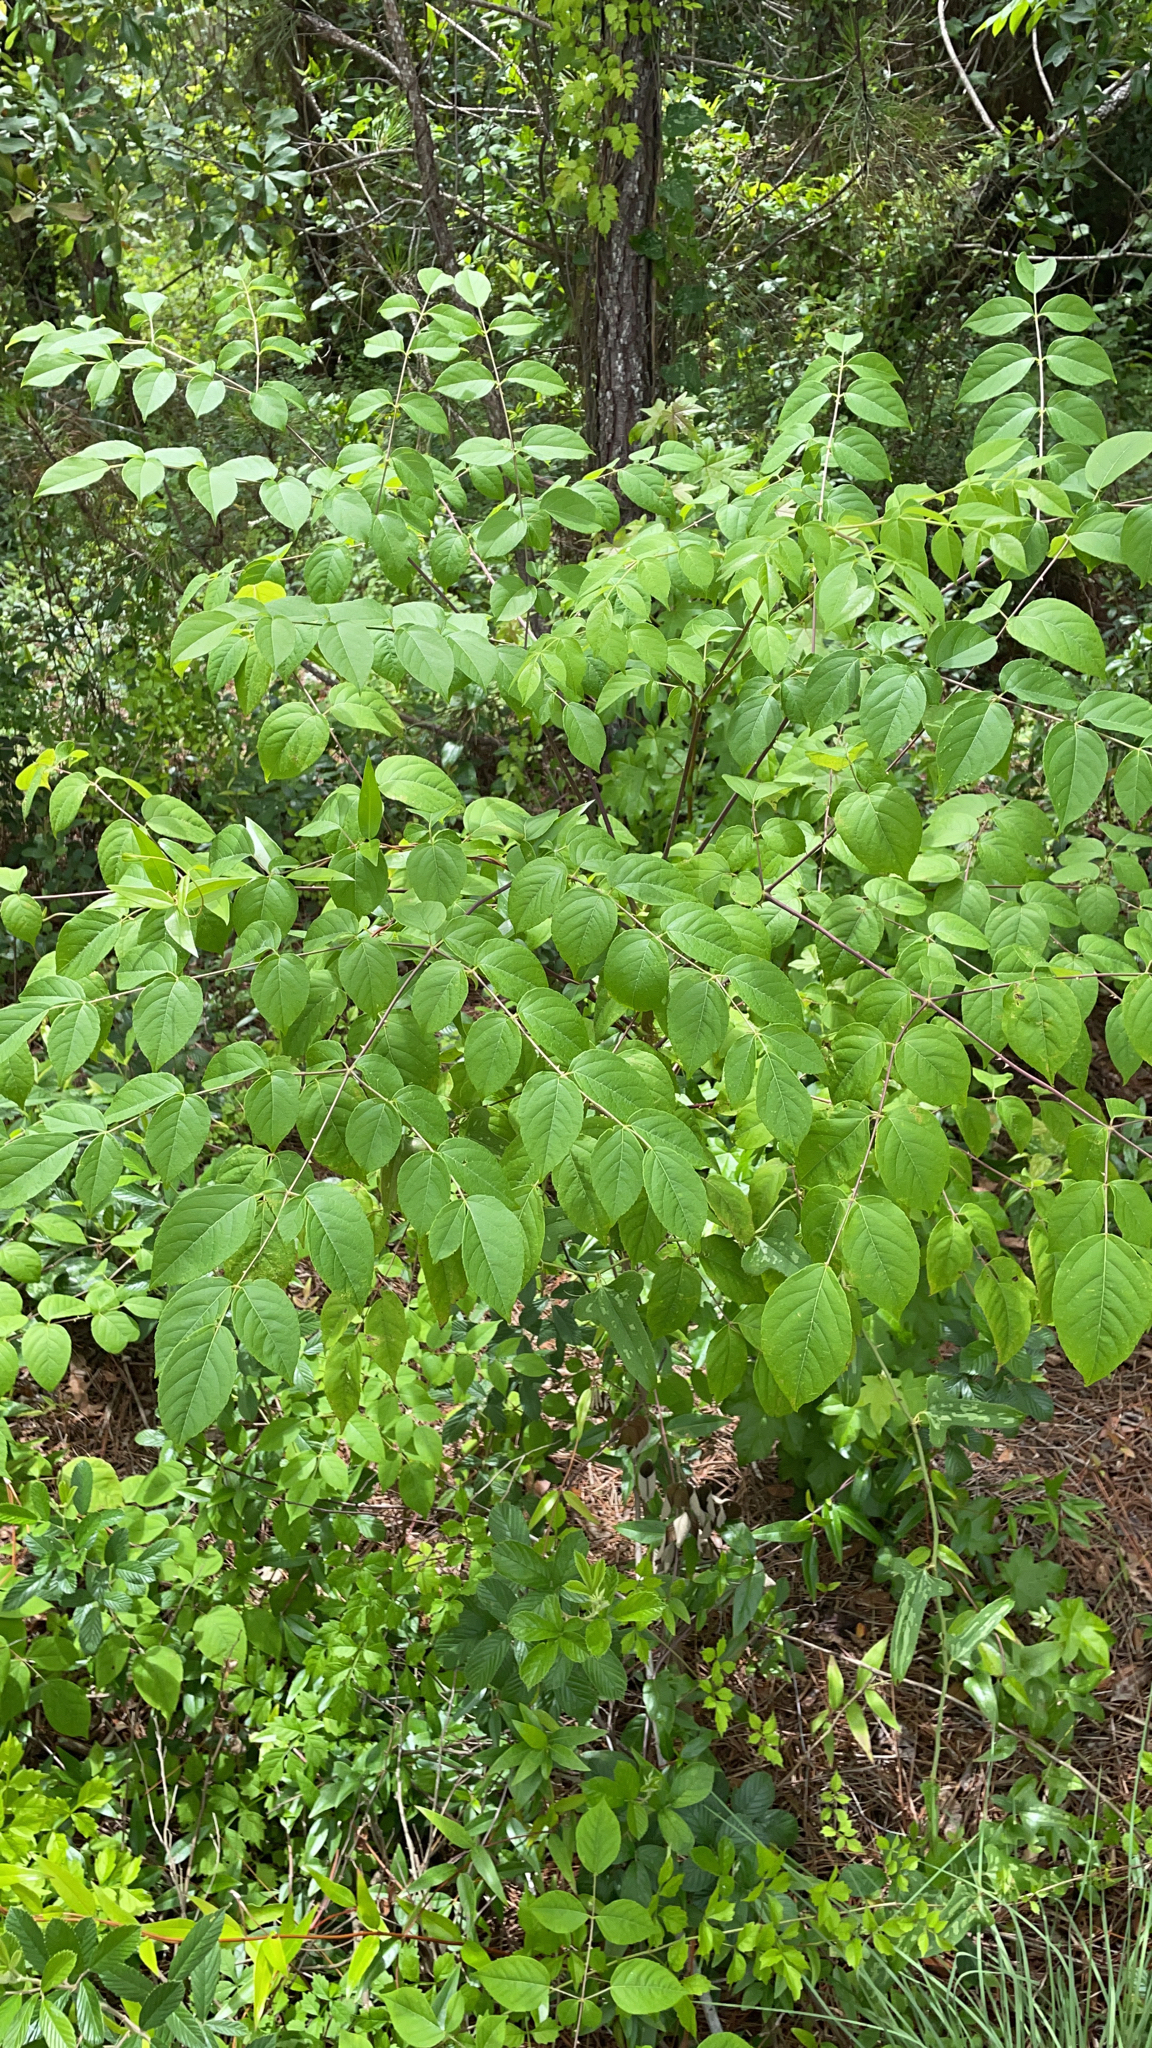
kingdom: Plantae
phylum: Tracheophyta
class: Magnoliopsida
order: Apiales
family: Araliaceae
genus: Aralia
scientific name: Aralia spinosa
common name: Hercules'-club
